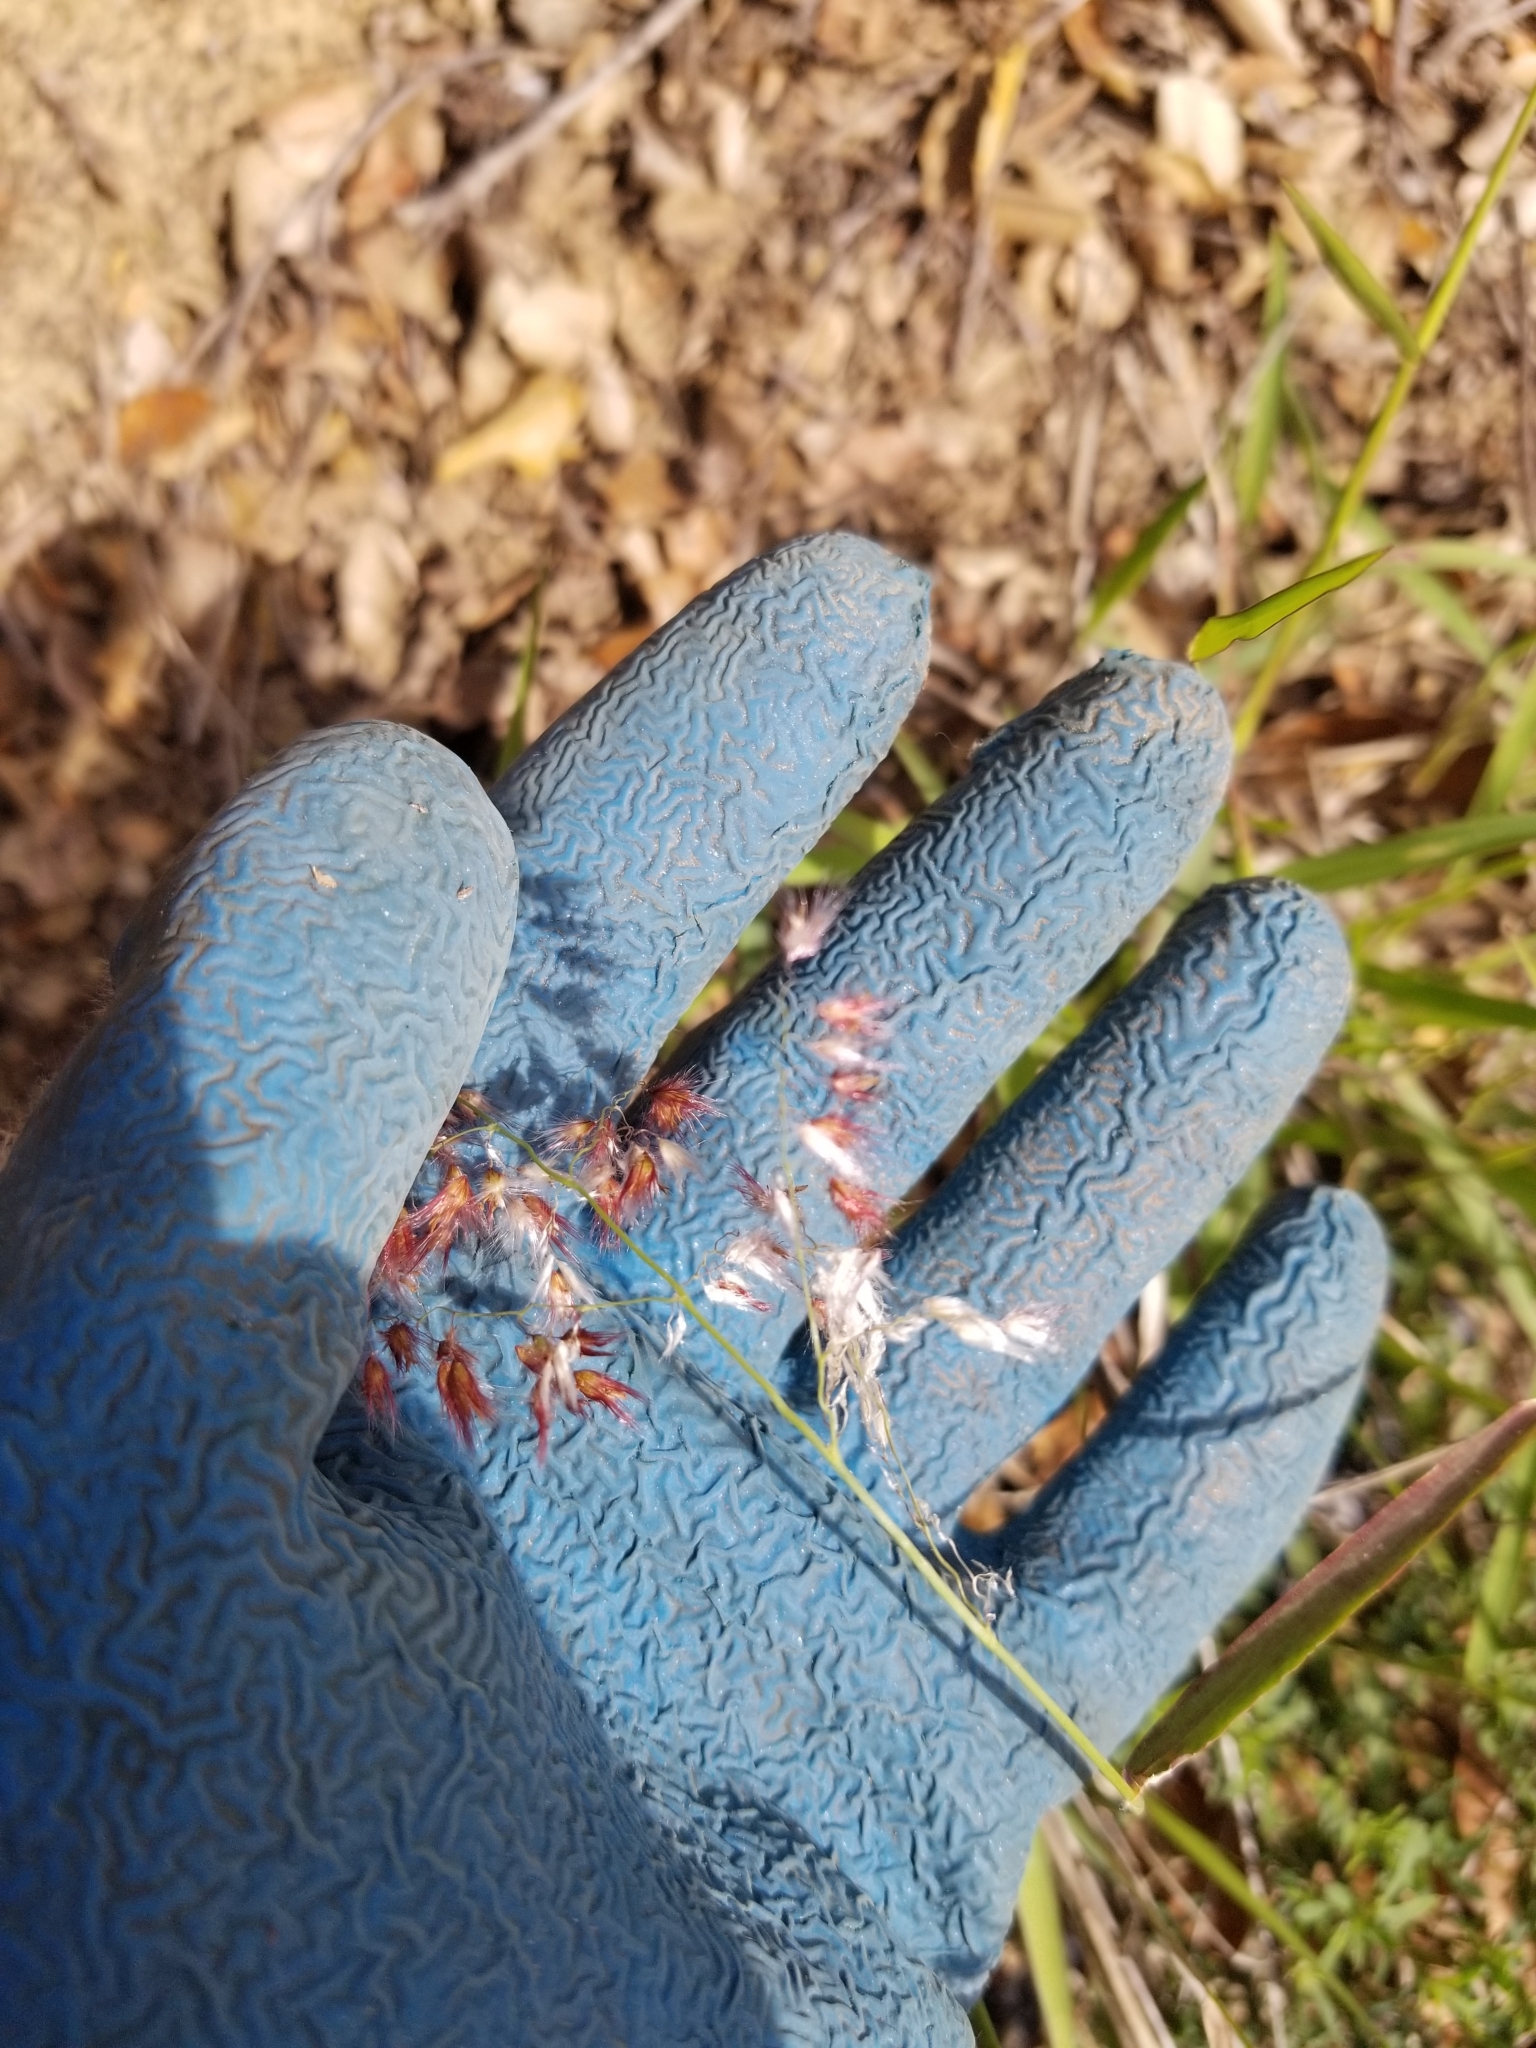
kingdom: Plantae
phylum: Tracheophyta
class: Liliopsida
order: Poales
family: Poaceae
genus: Melinis
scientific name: Melinis repens
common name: Rose natal grass
